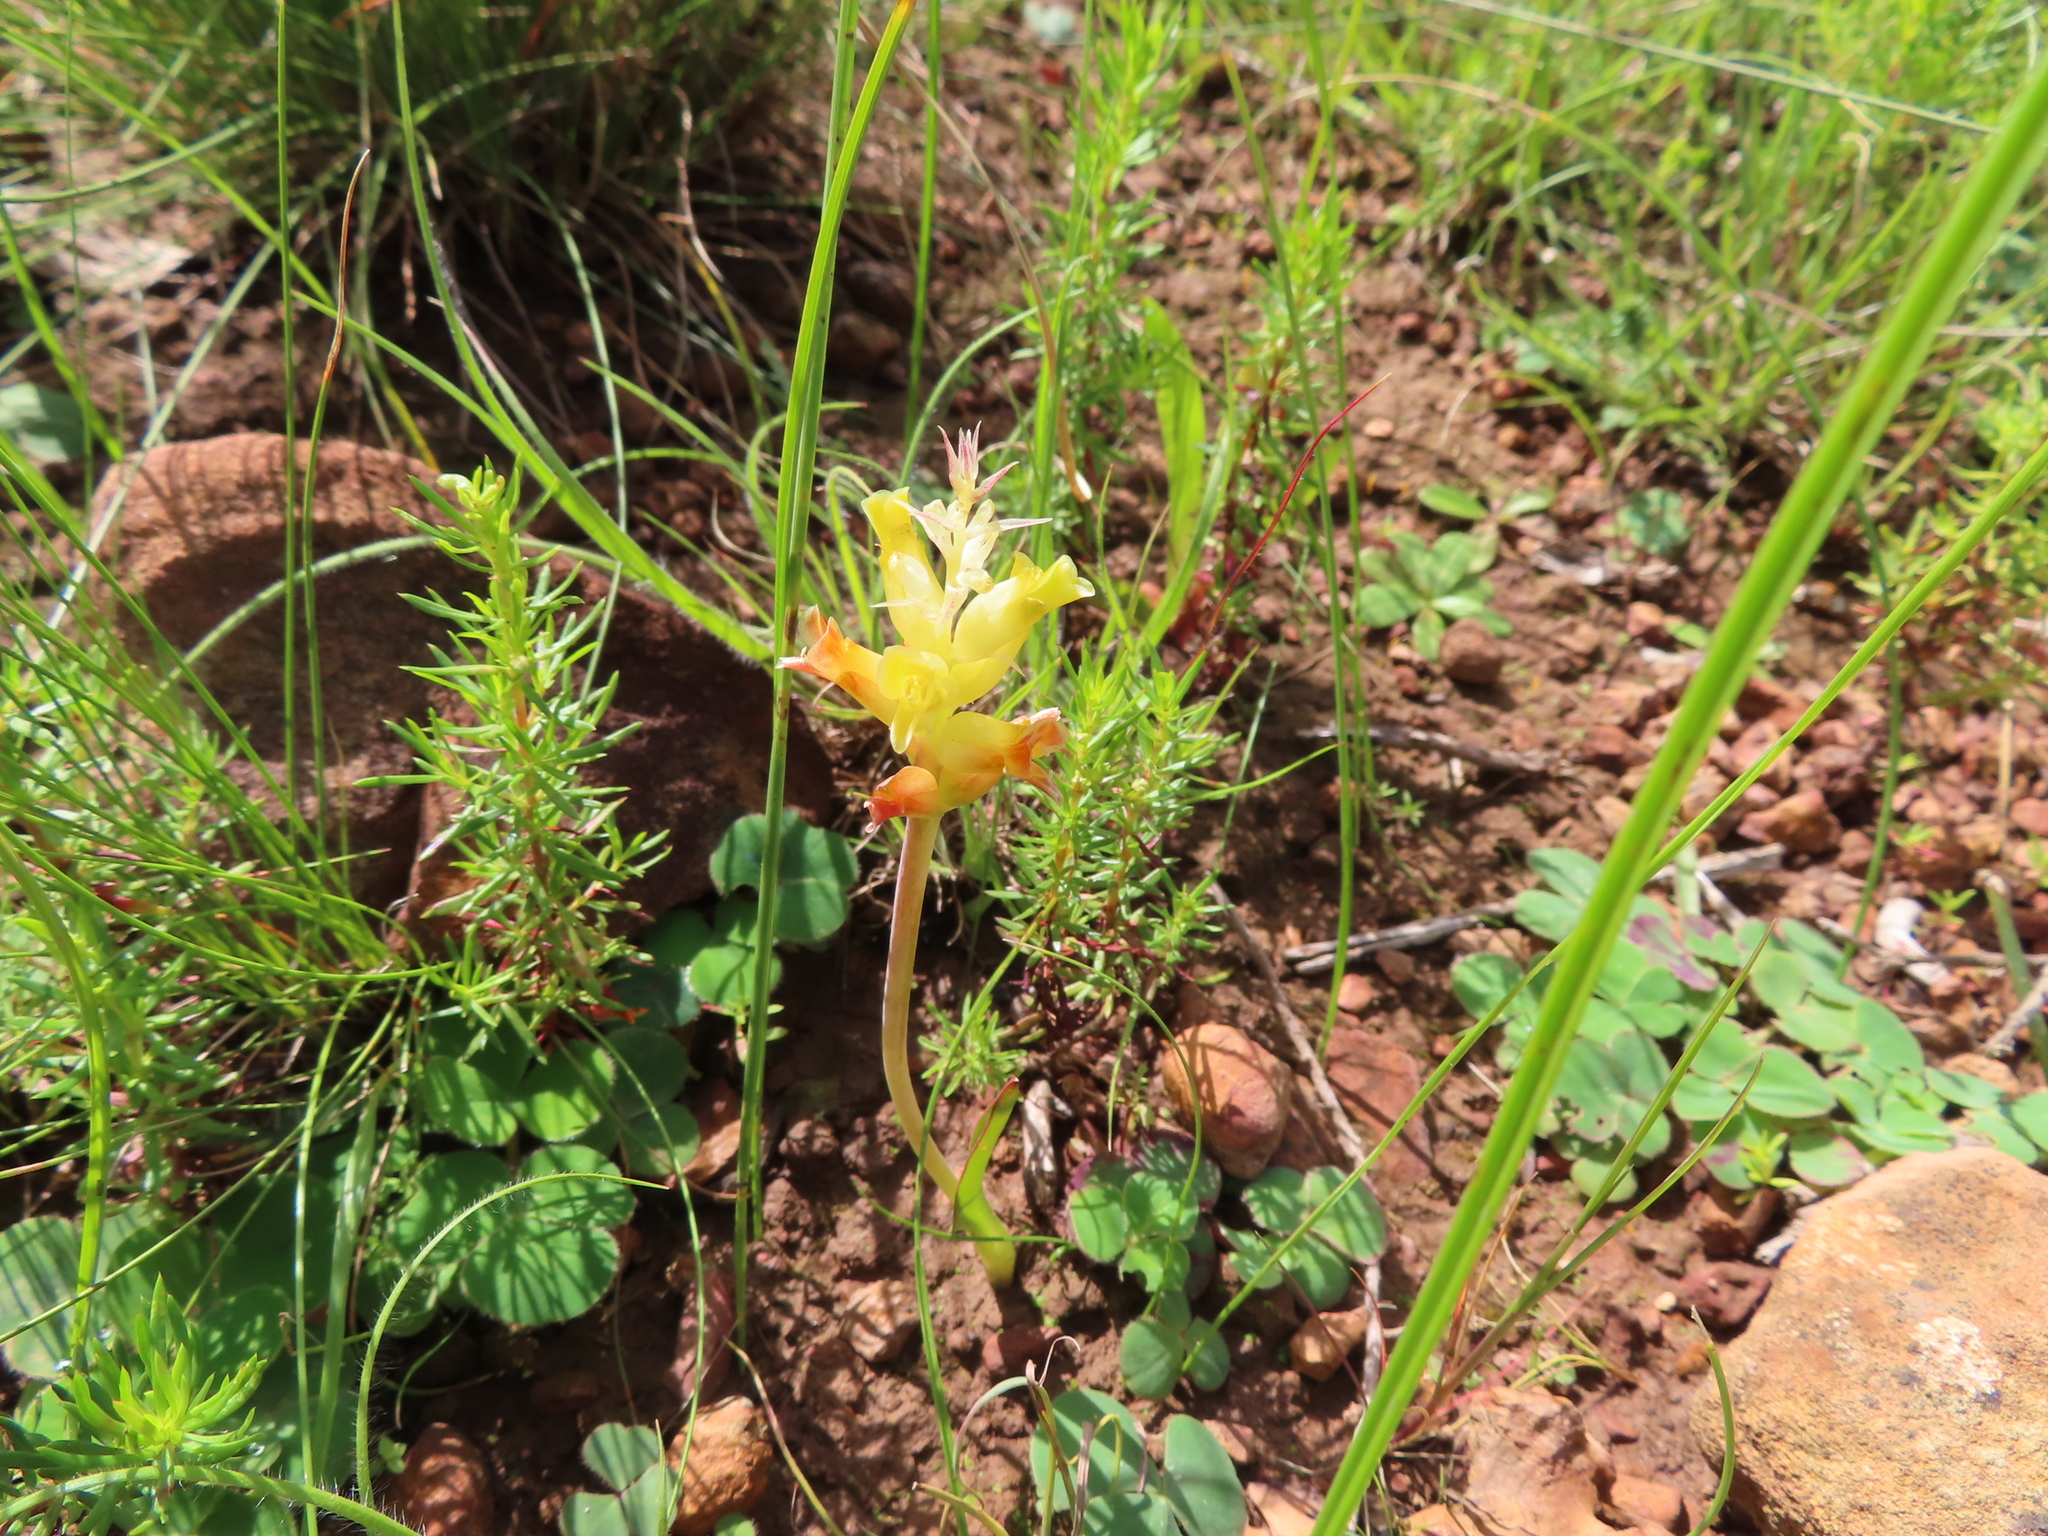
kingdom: Plantae
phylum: Tracheophyta
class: Liliopsida
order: Asparagales
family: Asparagaceae
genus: Lachenalia
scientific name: Lachenalia orchioides
